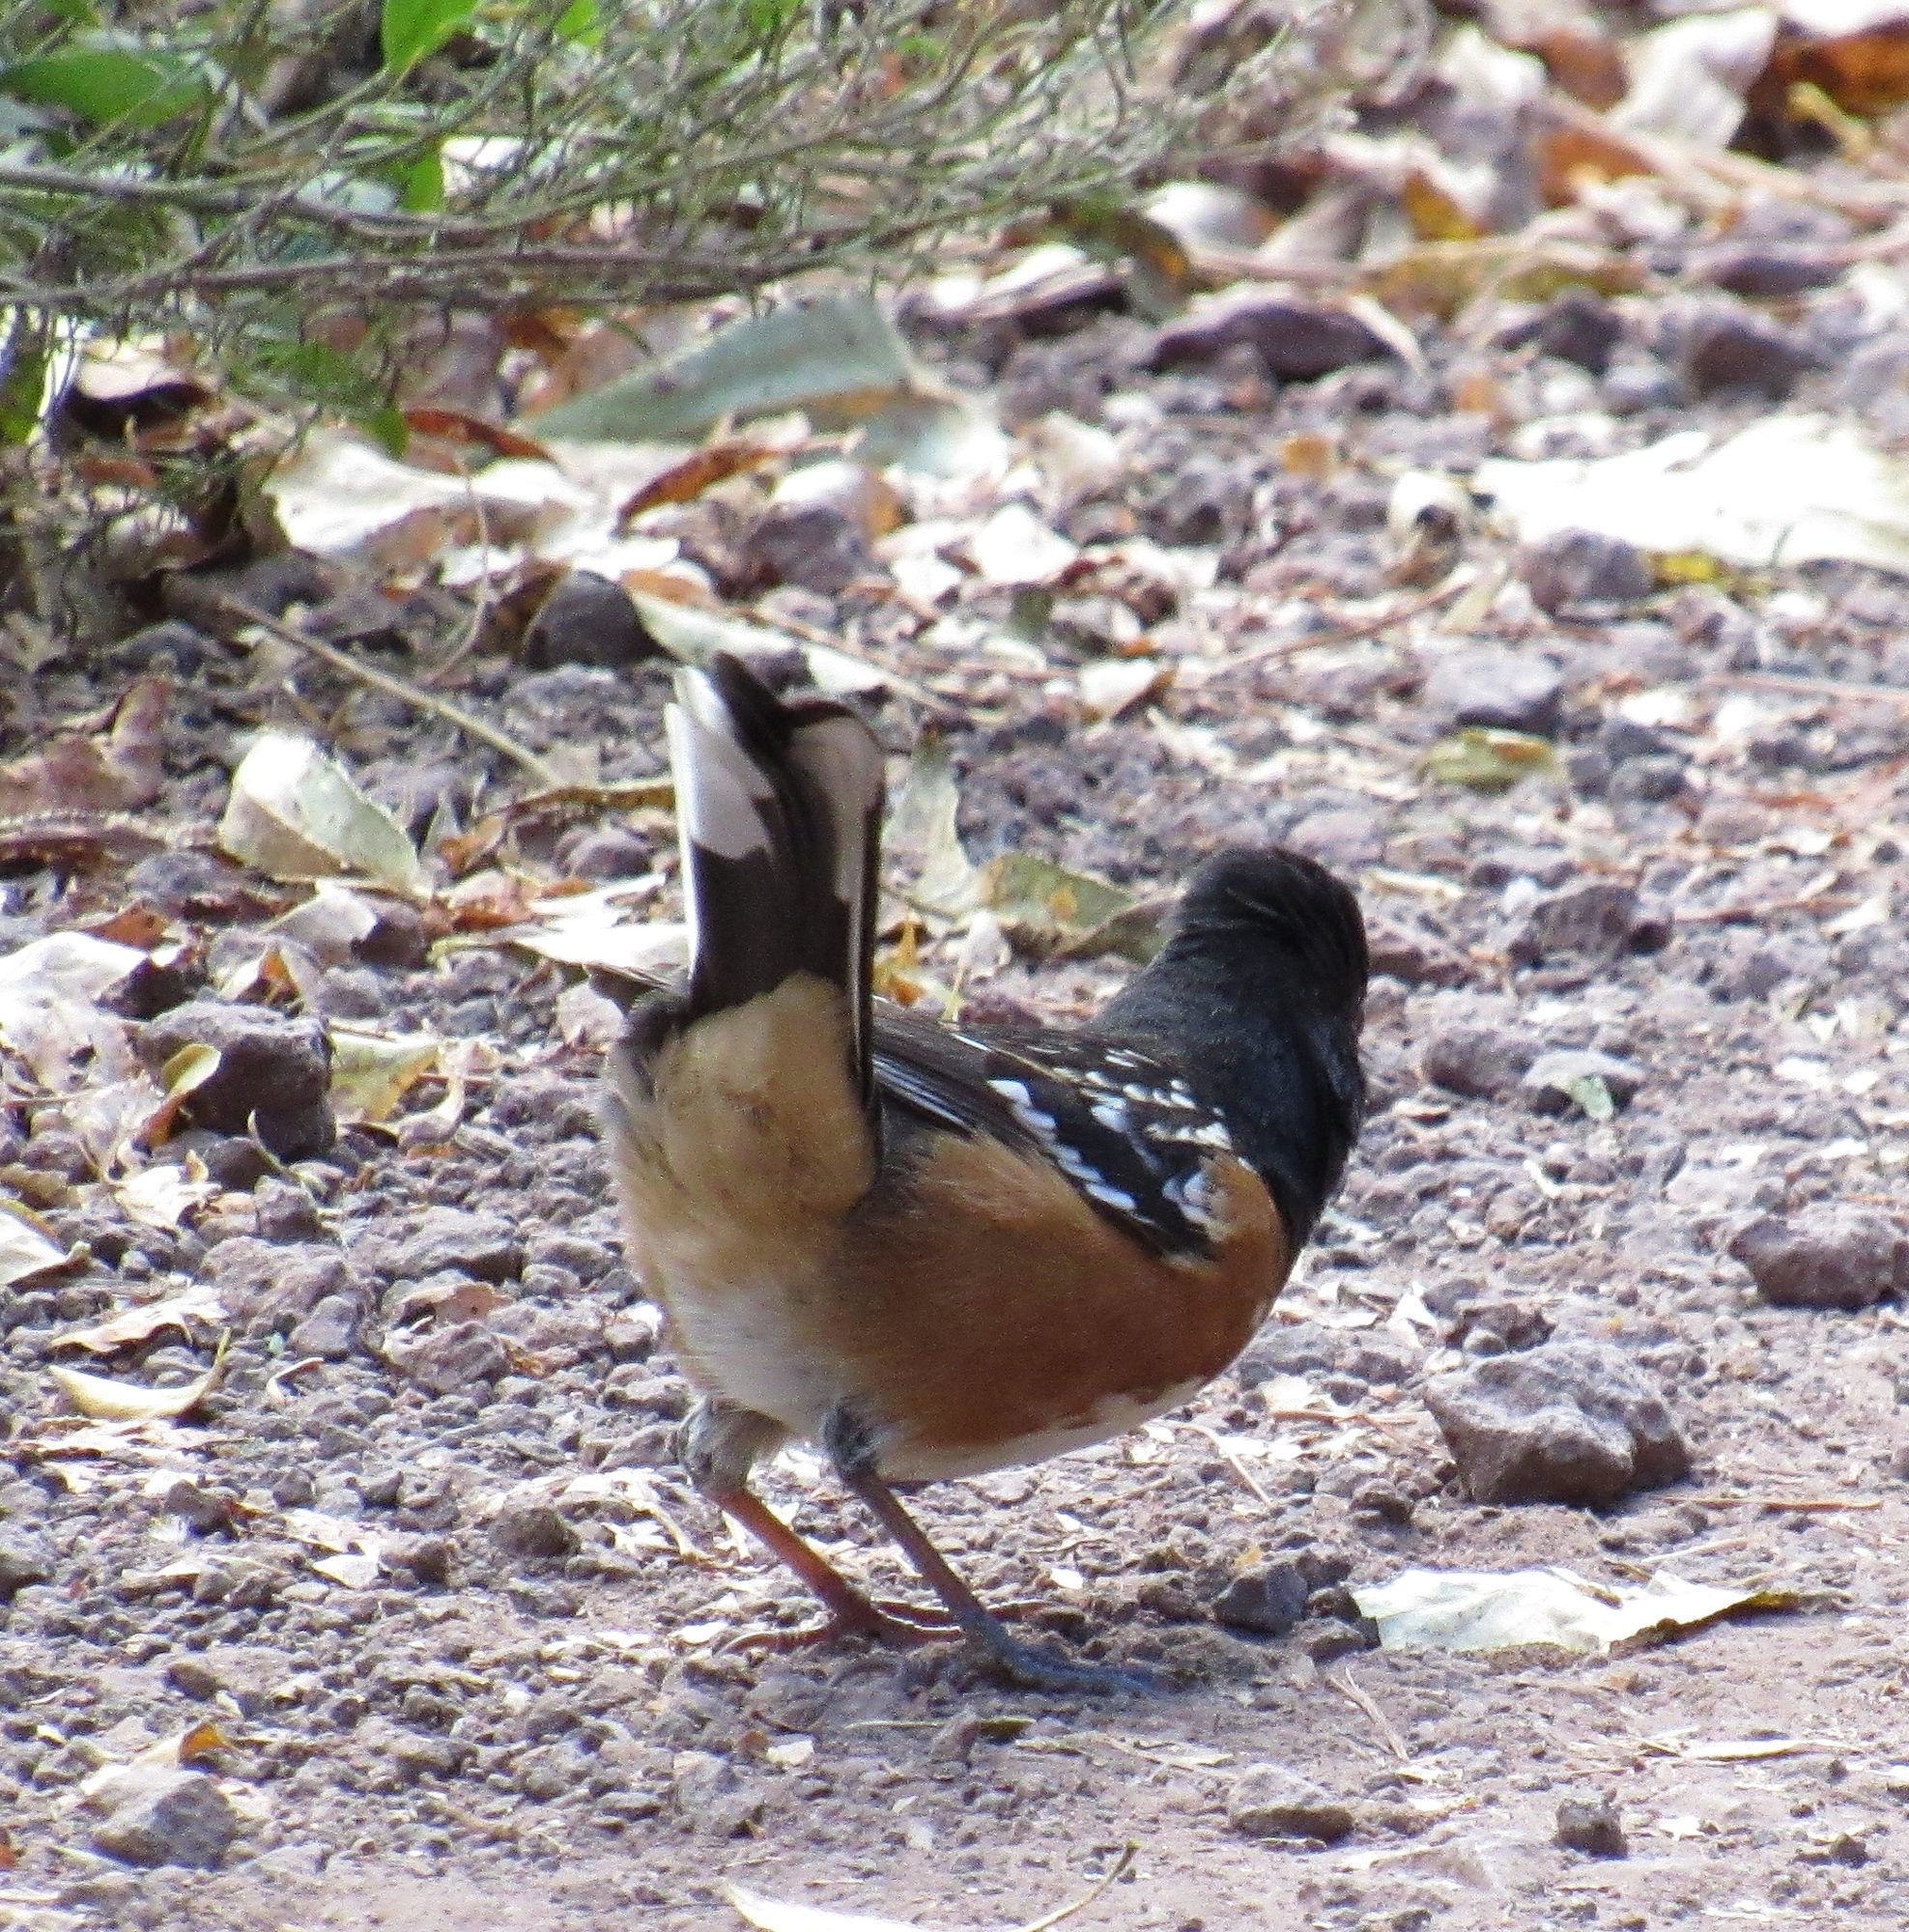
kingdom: Animalia
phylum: Chordata
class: Aves
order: Passeriformes
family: Passerellidae
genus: Pipilo
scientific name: Pipilo maculatus
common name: Spotted towhee
